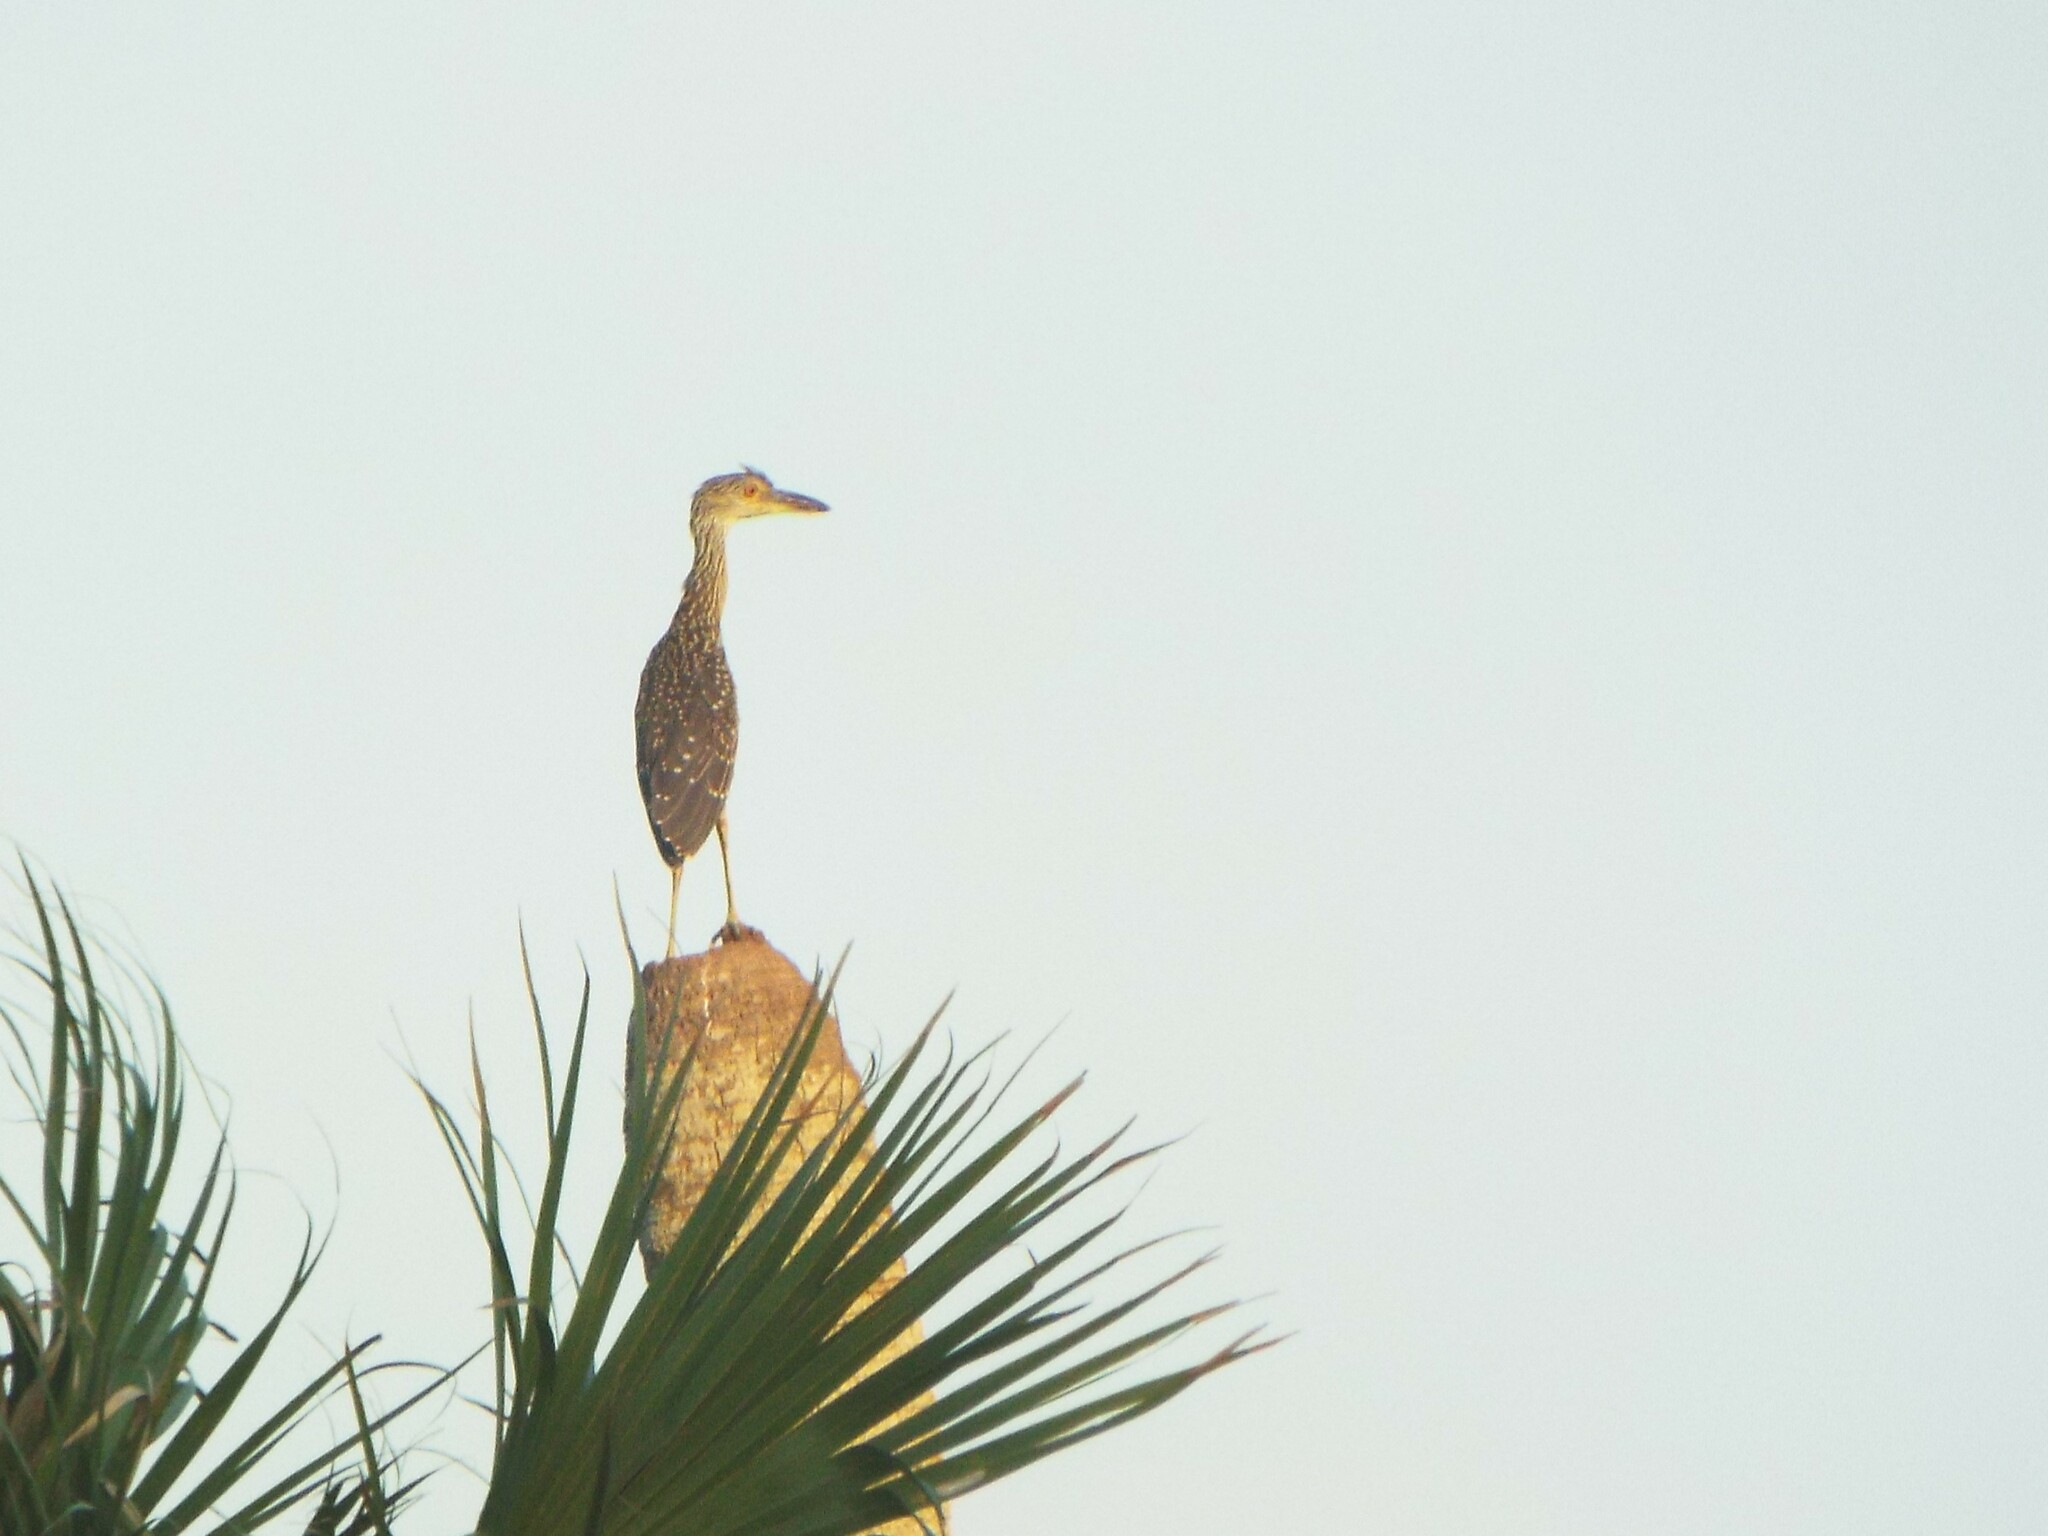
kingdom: Animalia
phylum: Chordata
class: Aves
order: Pelecaniformes
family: Ardeidae
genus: Nyctanassa
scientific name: Nyctanassa violacea
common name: Yellow-crowned night heron
